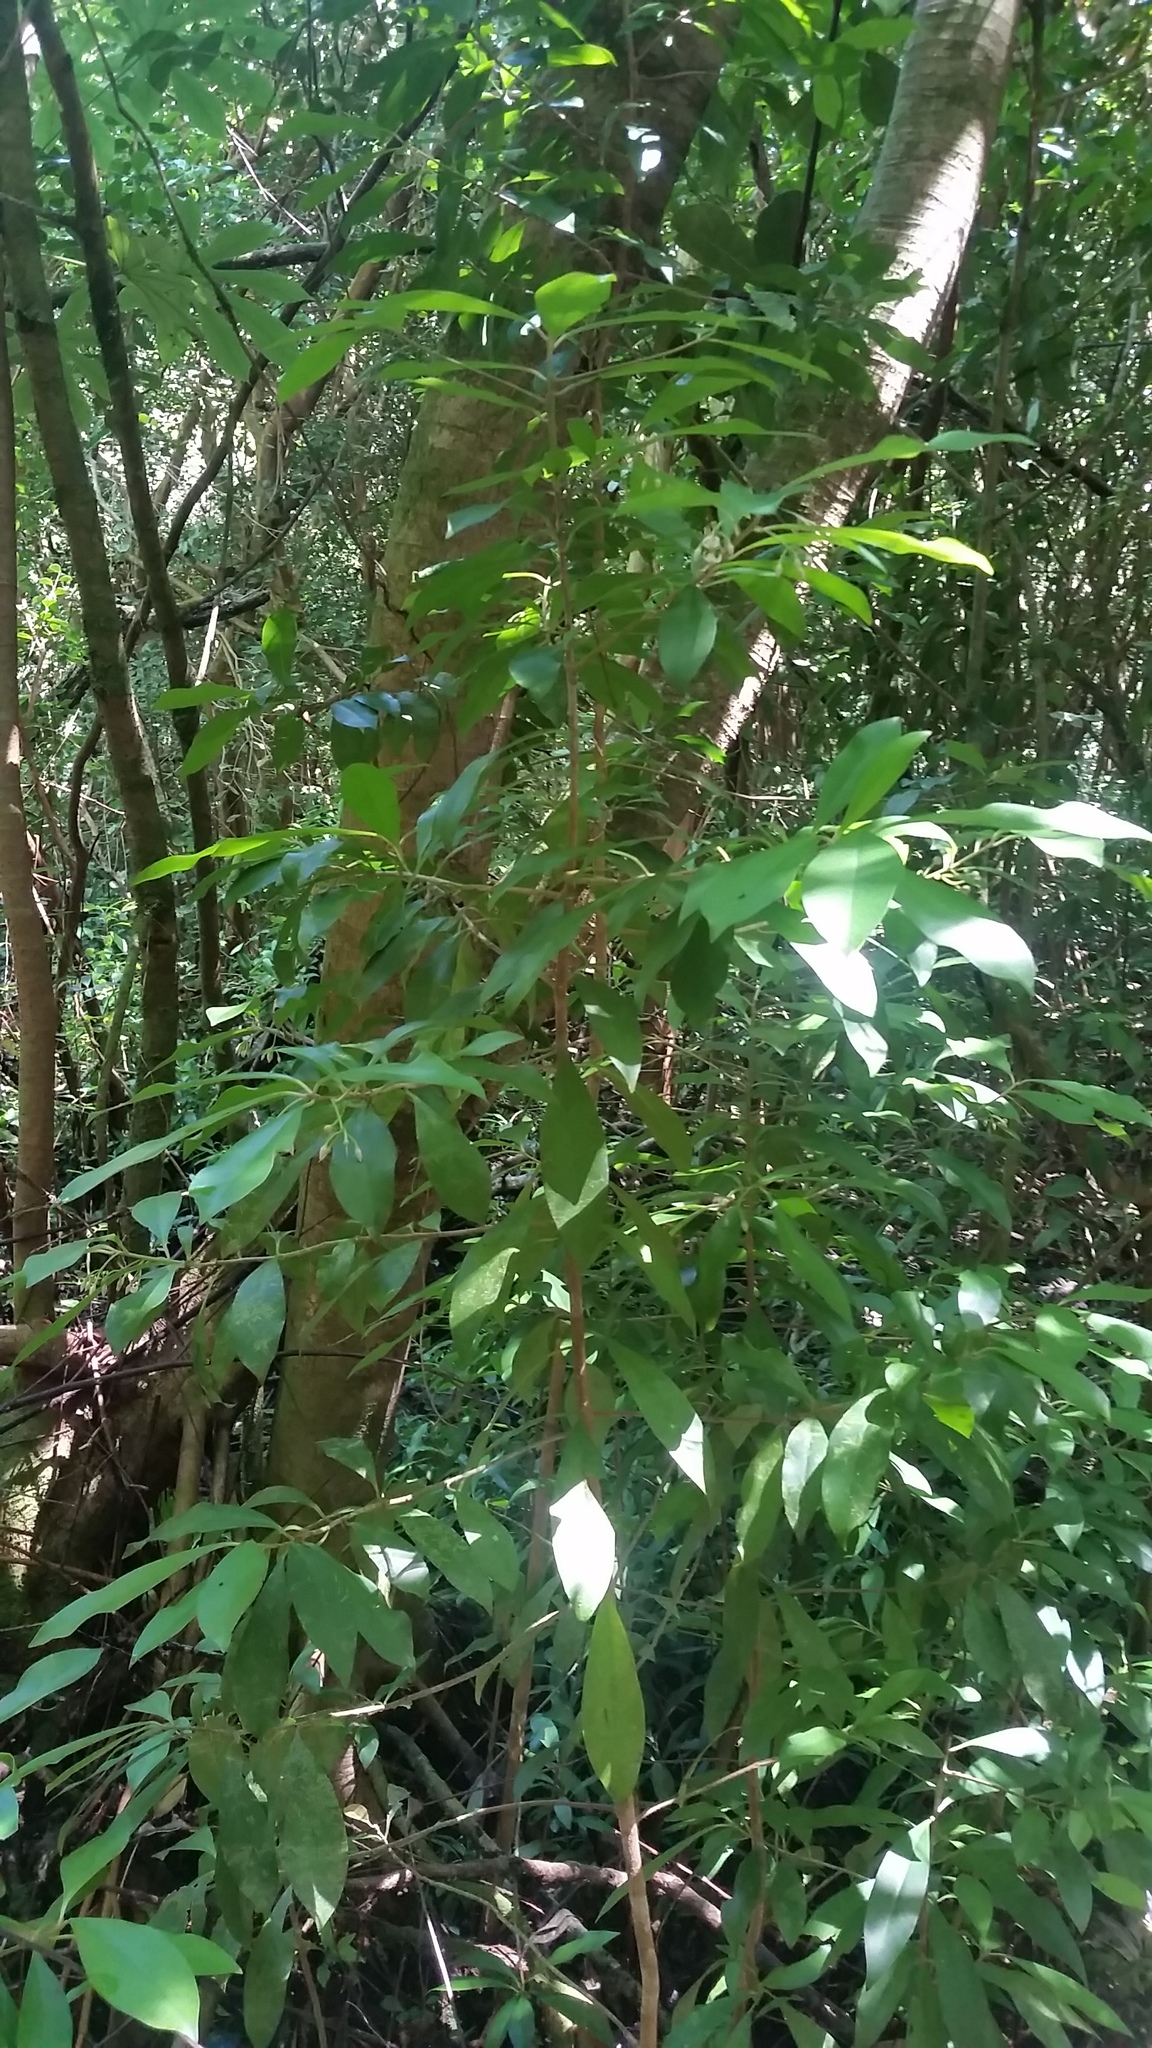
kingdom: Plantae
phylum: Tracheophyta
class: Magnoliopsida
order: Ericales
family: Primulaceae
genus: Ardisia
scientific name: Ardisia elliptica
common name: Shoebutton
